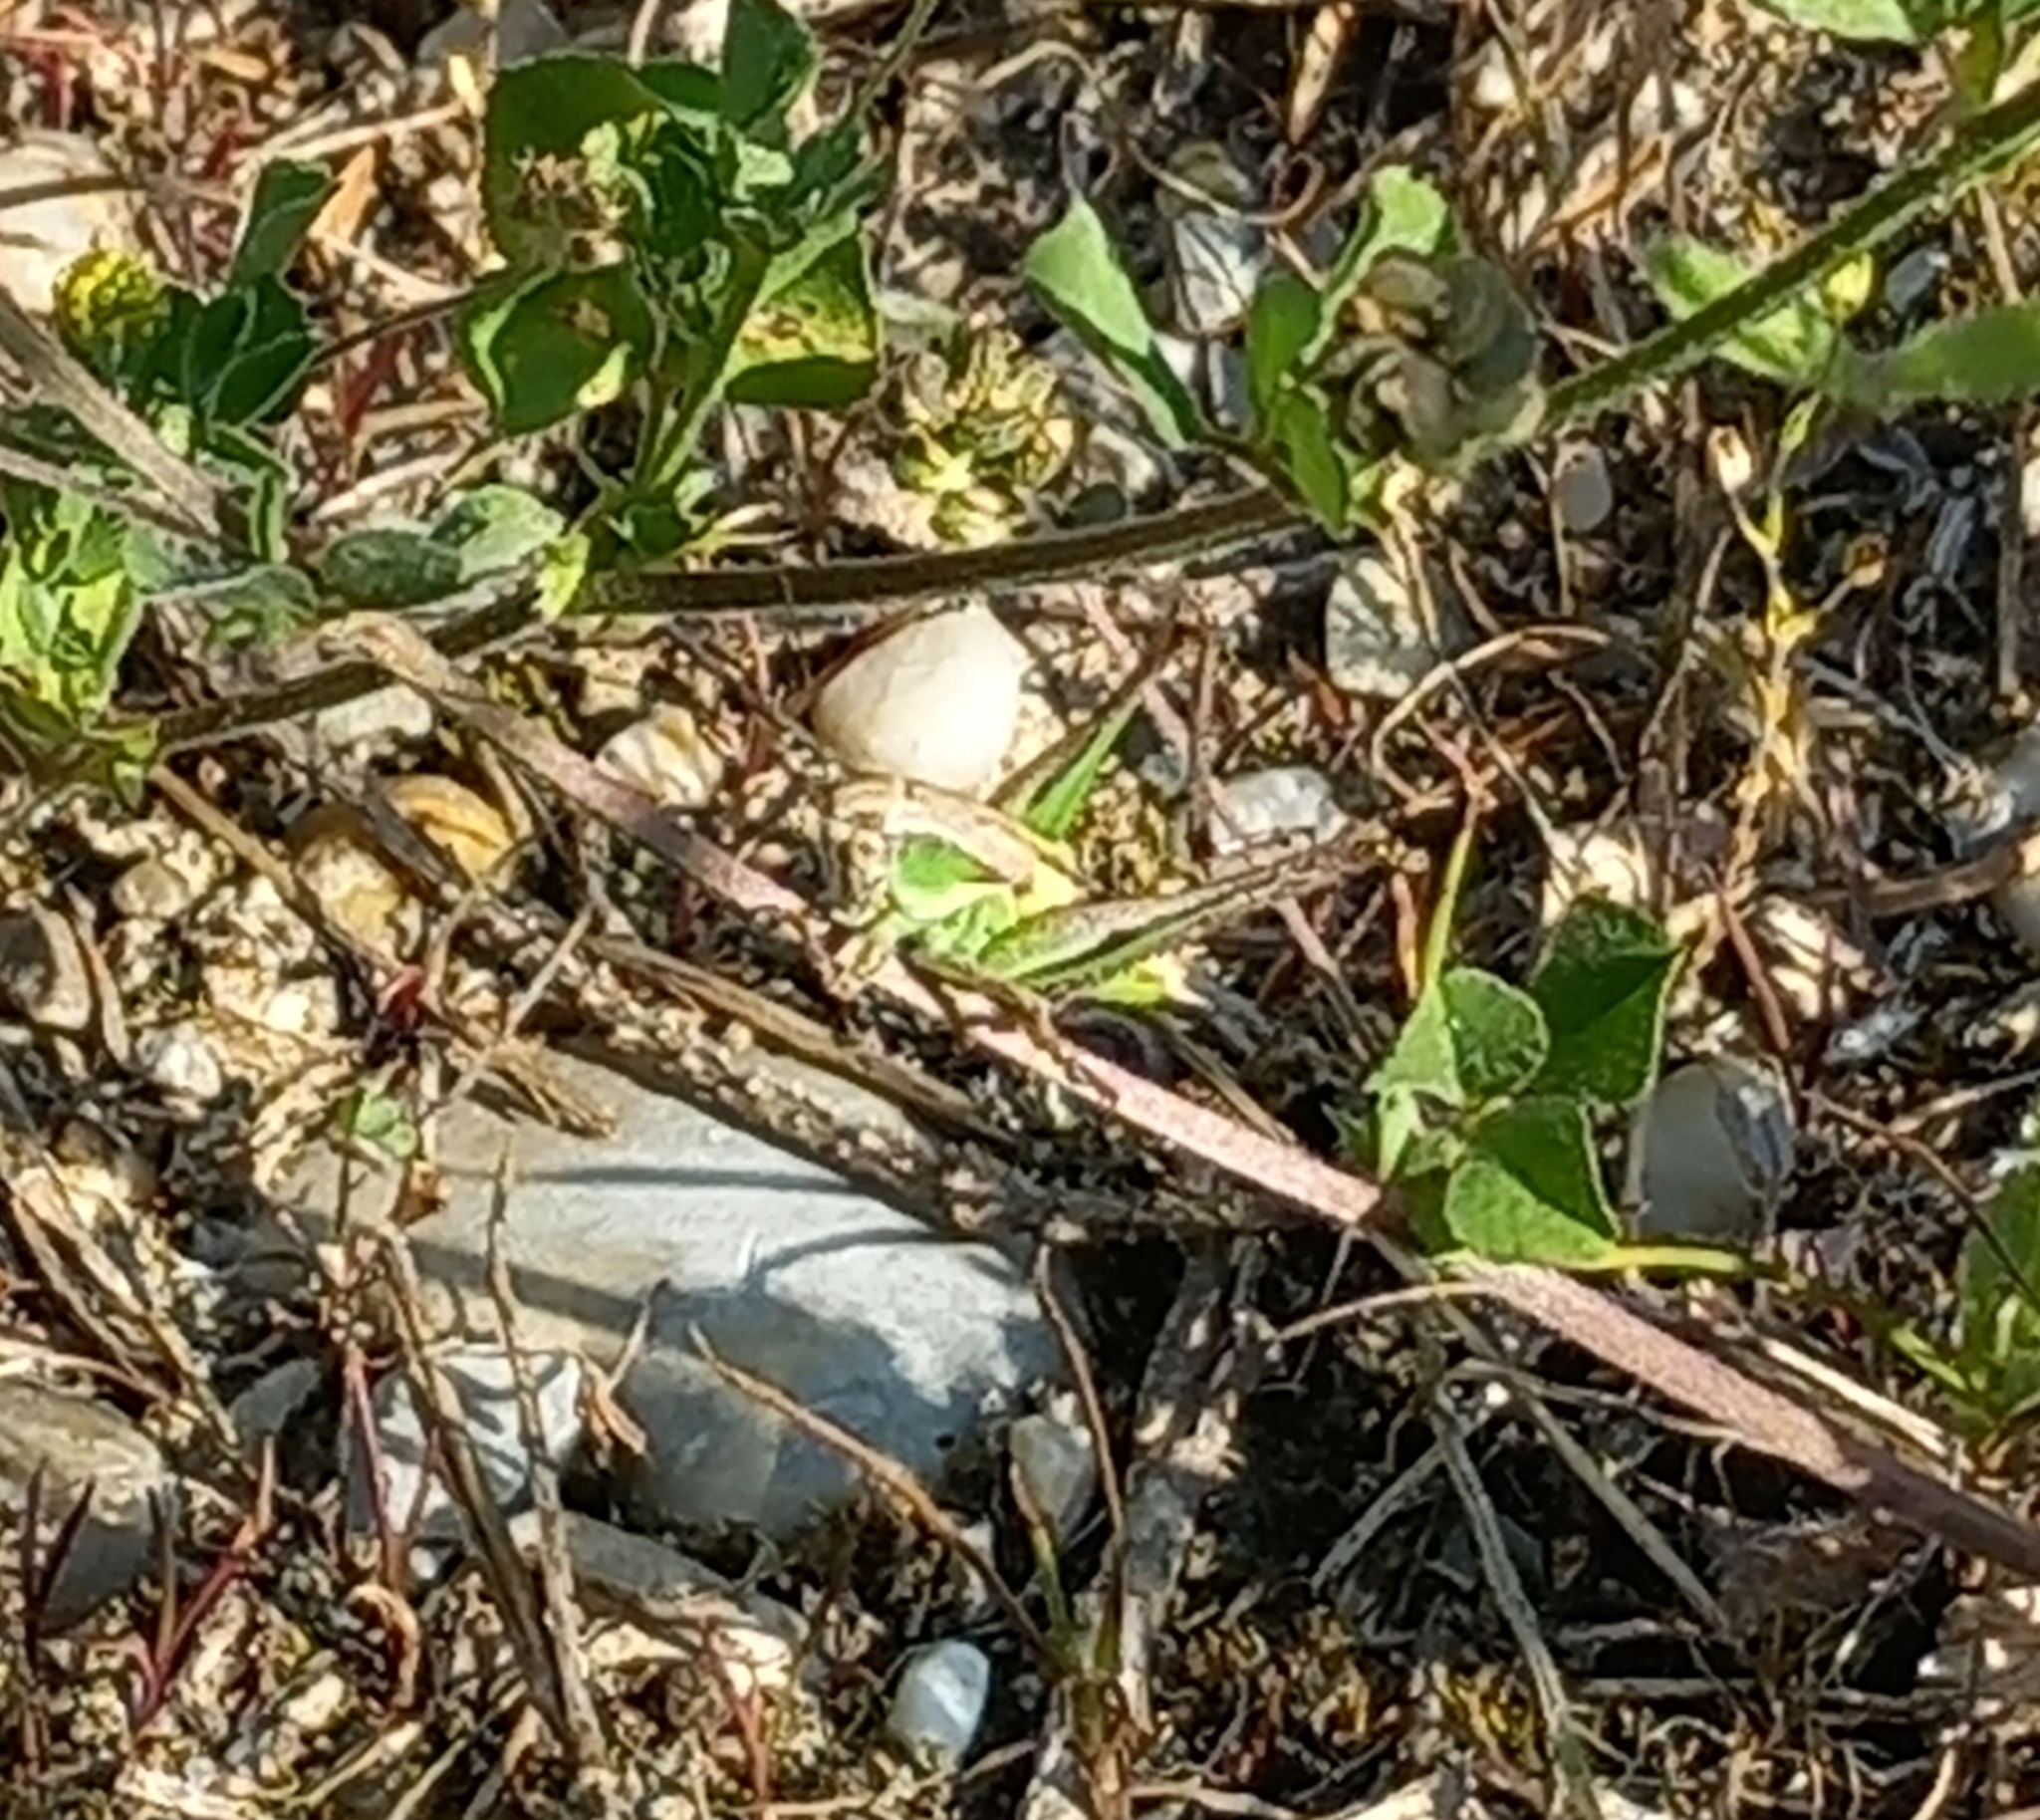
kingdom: Animalia
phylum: Arthropoda
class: Insecta
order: Orthoptera
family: Tettigoniidae
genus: Platycleis
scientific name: Platycleis grisea
